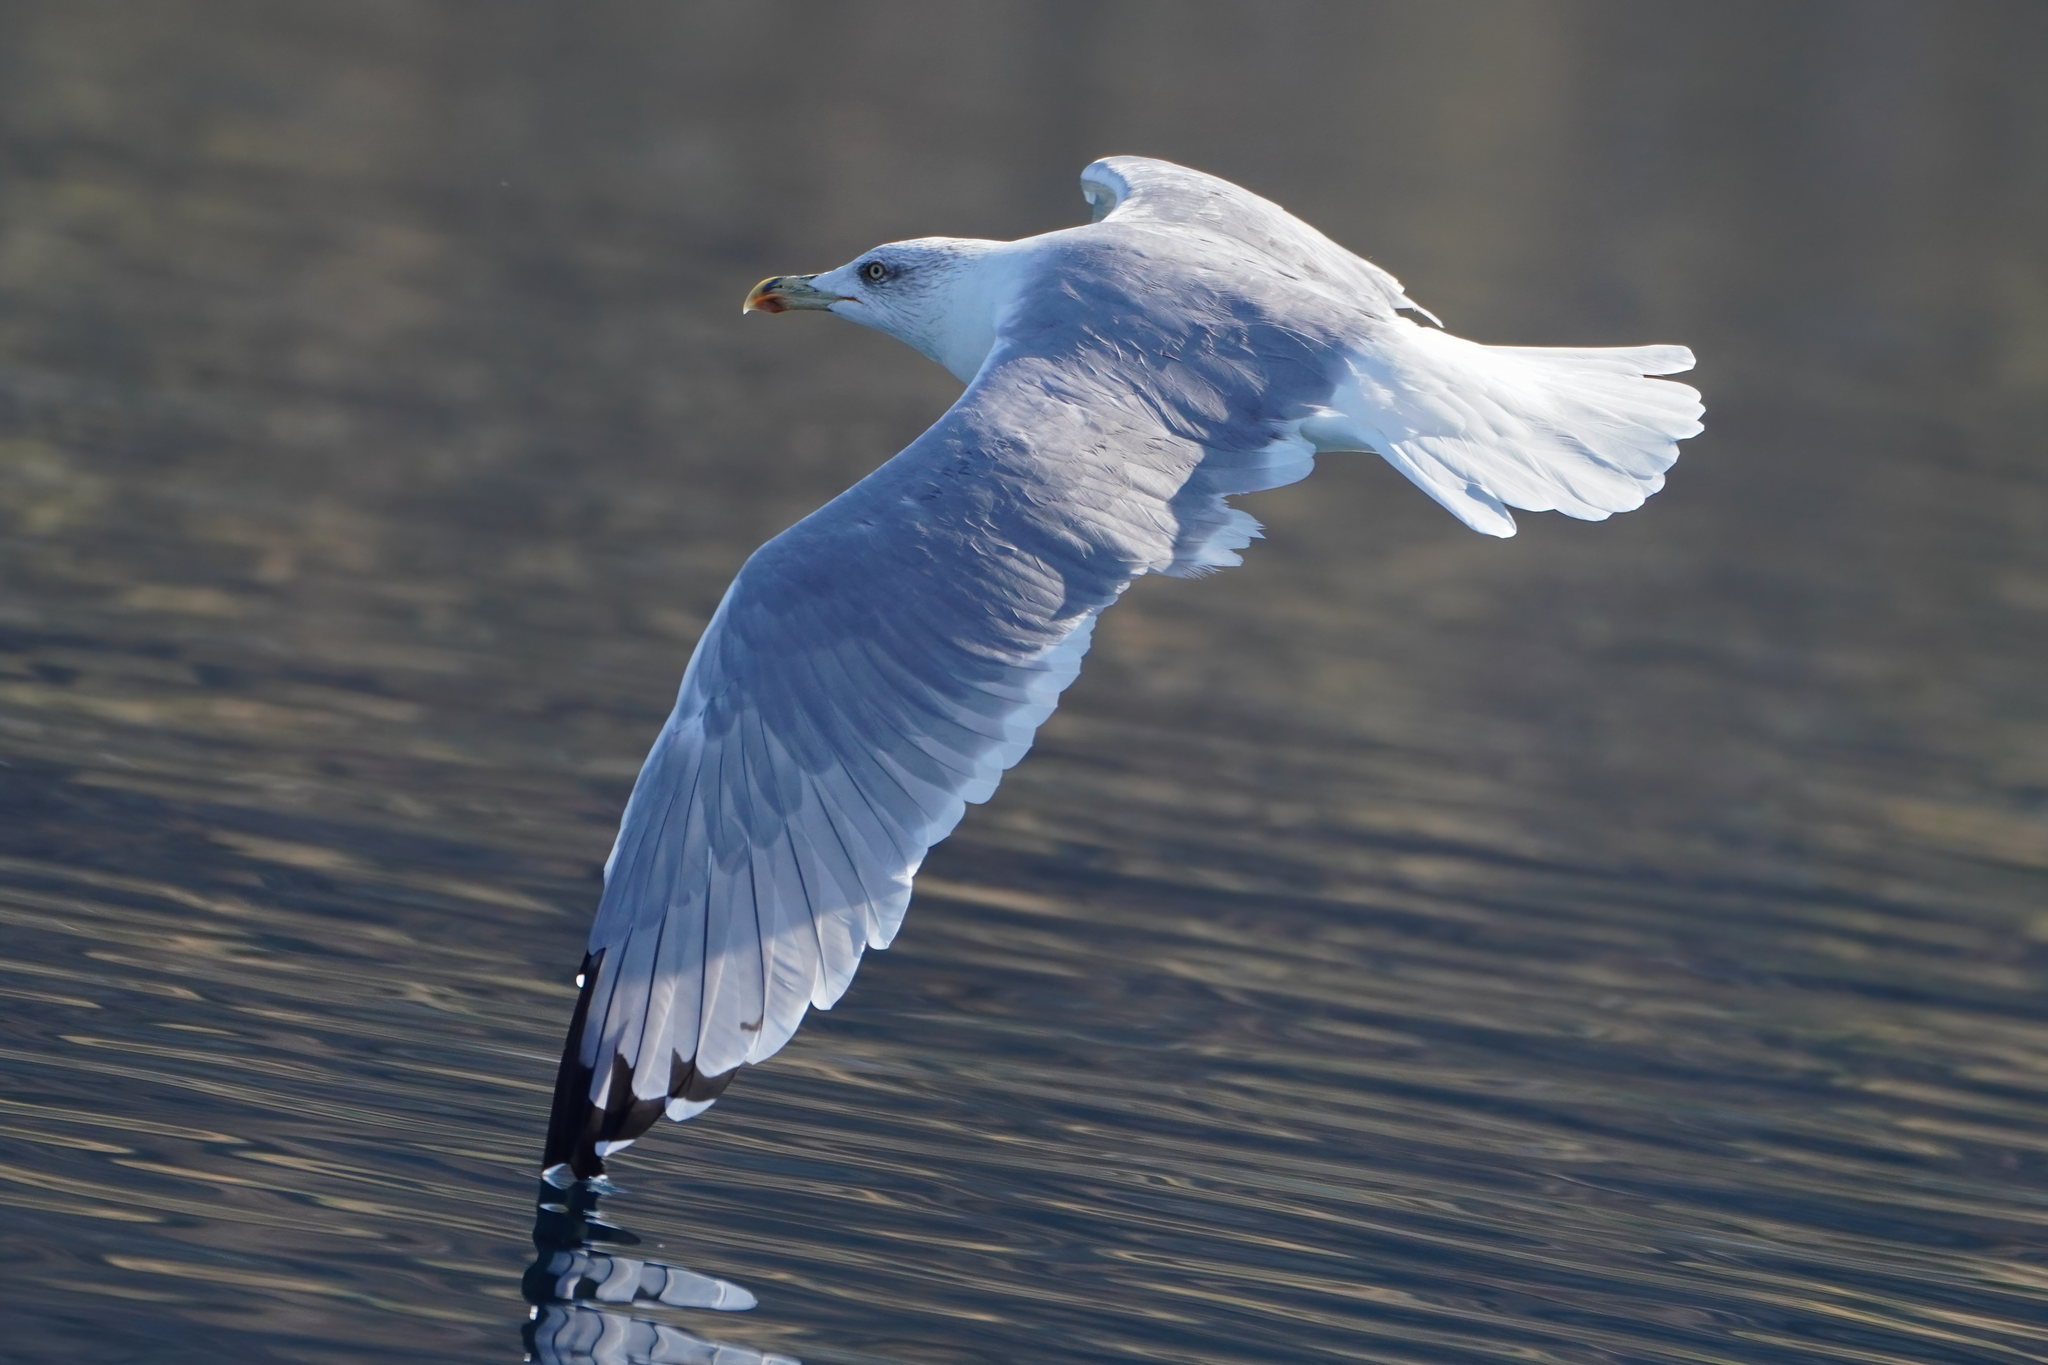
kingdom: Animalia
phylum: Chordata
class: Aves
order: Charadriiformes
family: Laridae
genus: Larus
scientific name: Larus michahellis
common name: Yellow-legged gull
